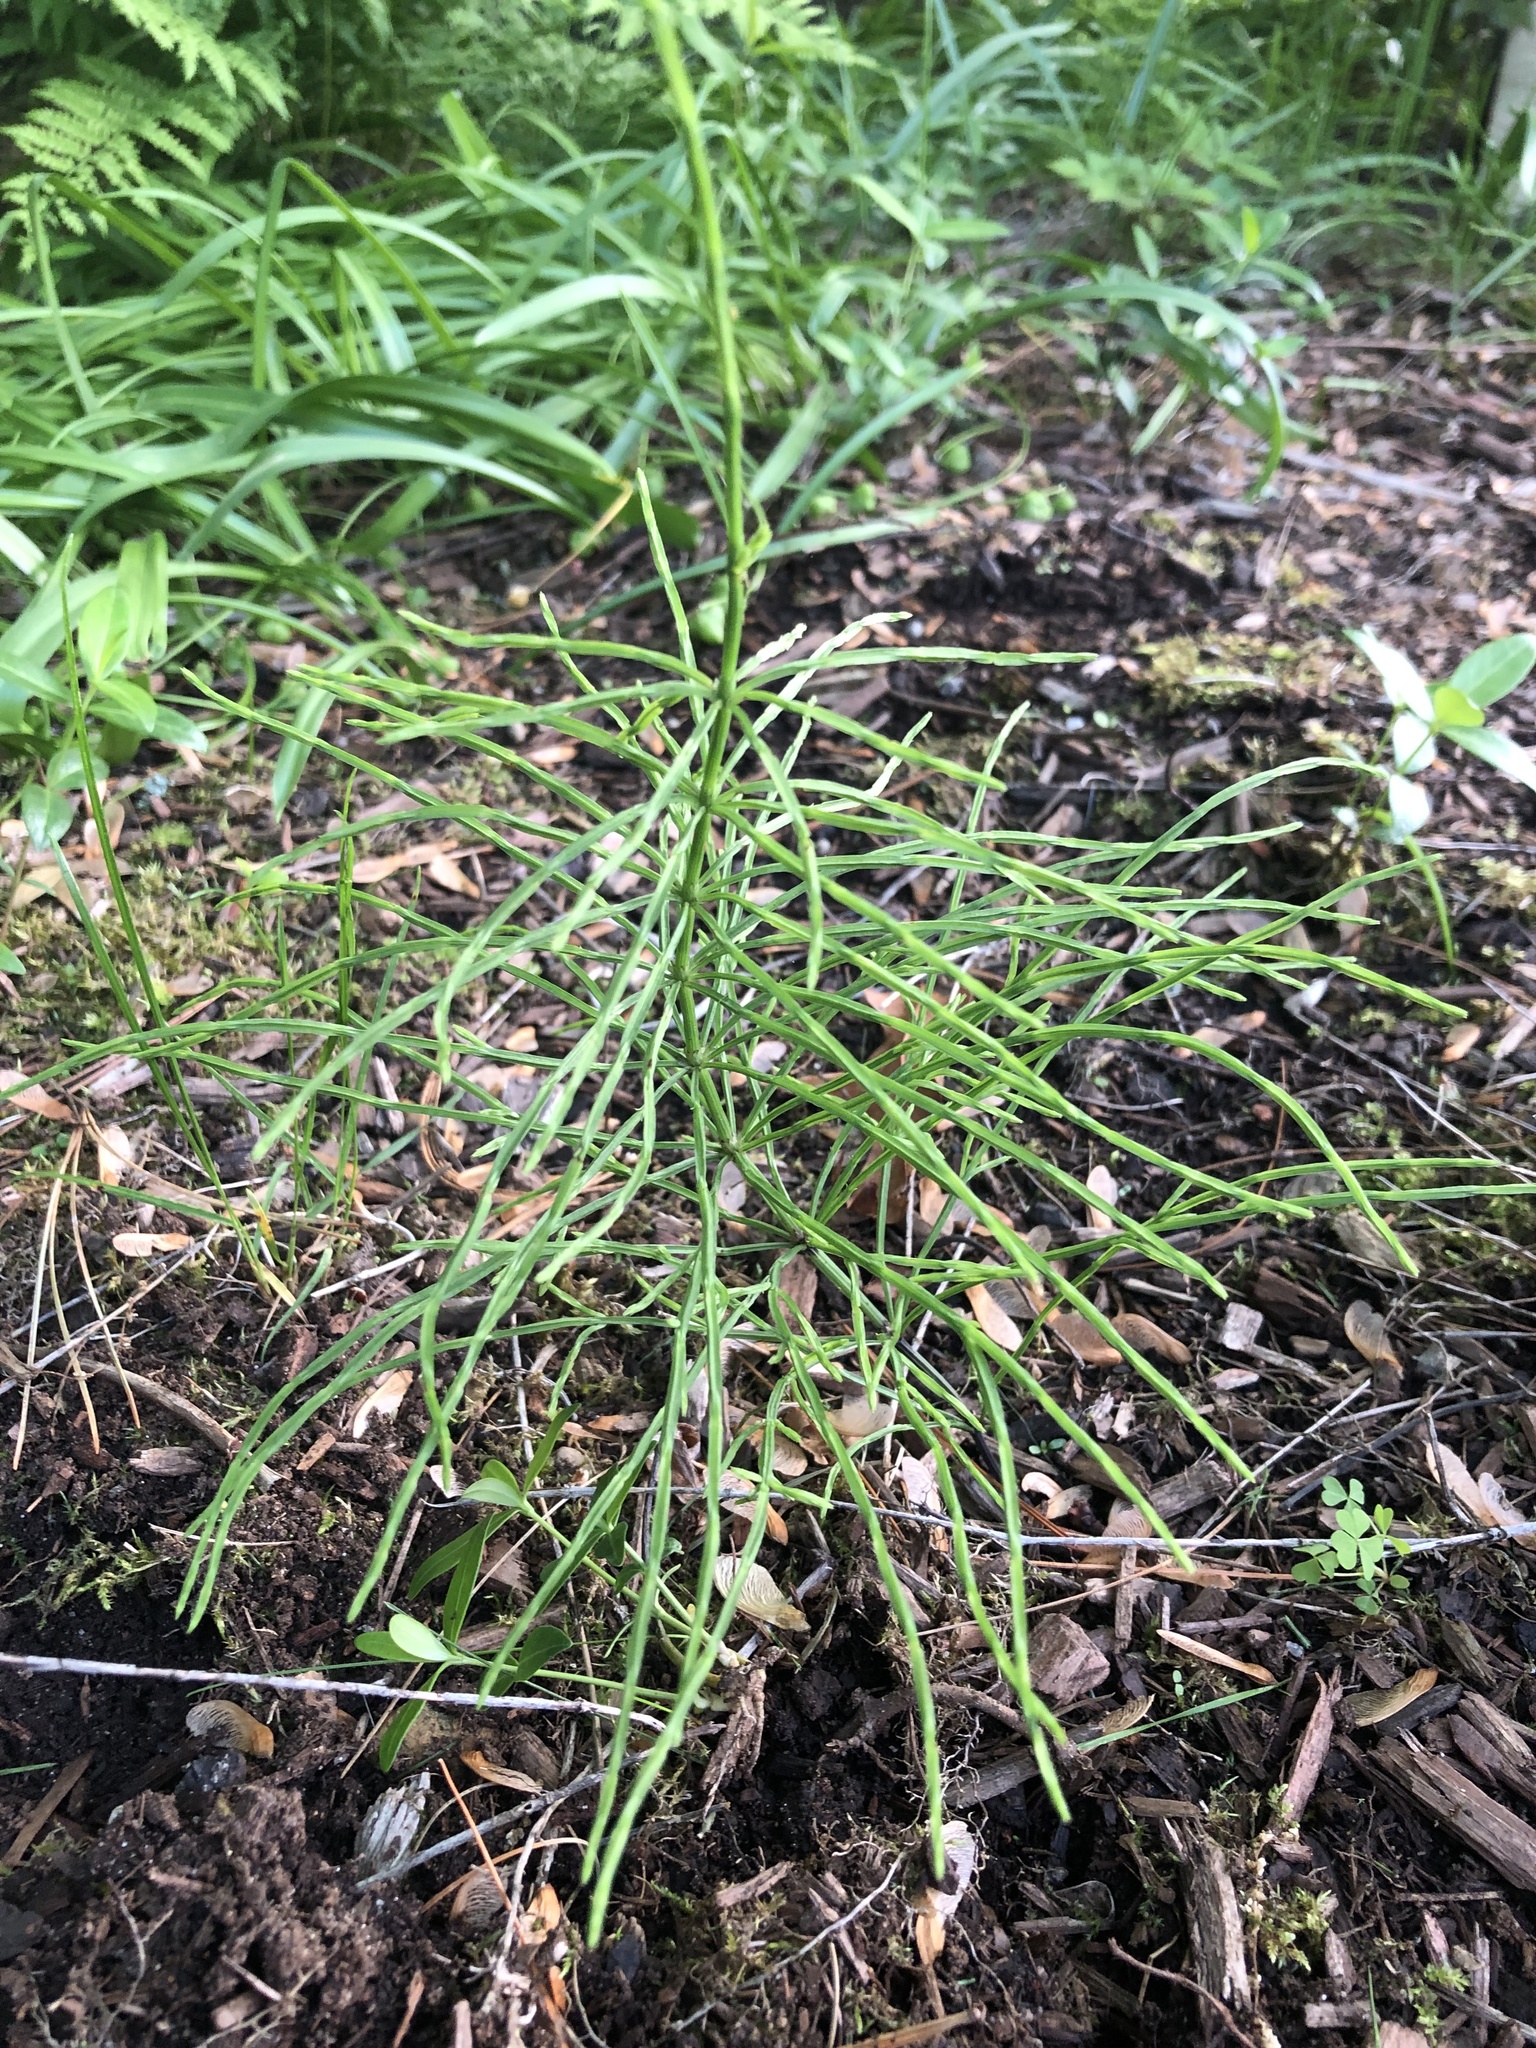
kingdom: Plantae
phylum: Tracheophyta
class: Polypodiopsida
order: Equisetales
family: Equisetaceae
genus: Equisetum
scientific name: Equisetum arvense
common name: Field horsetail
